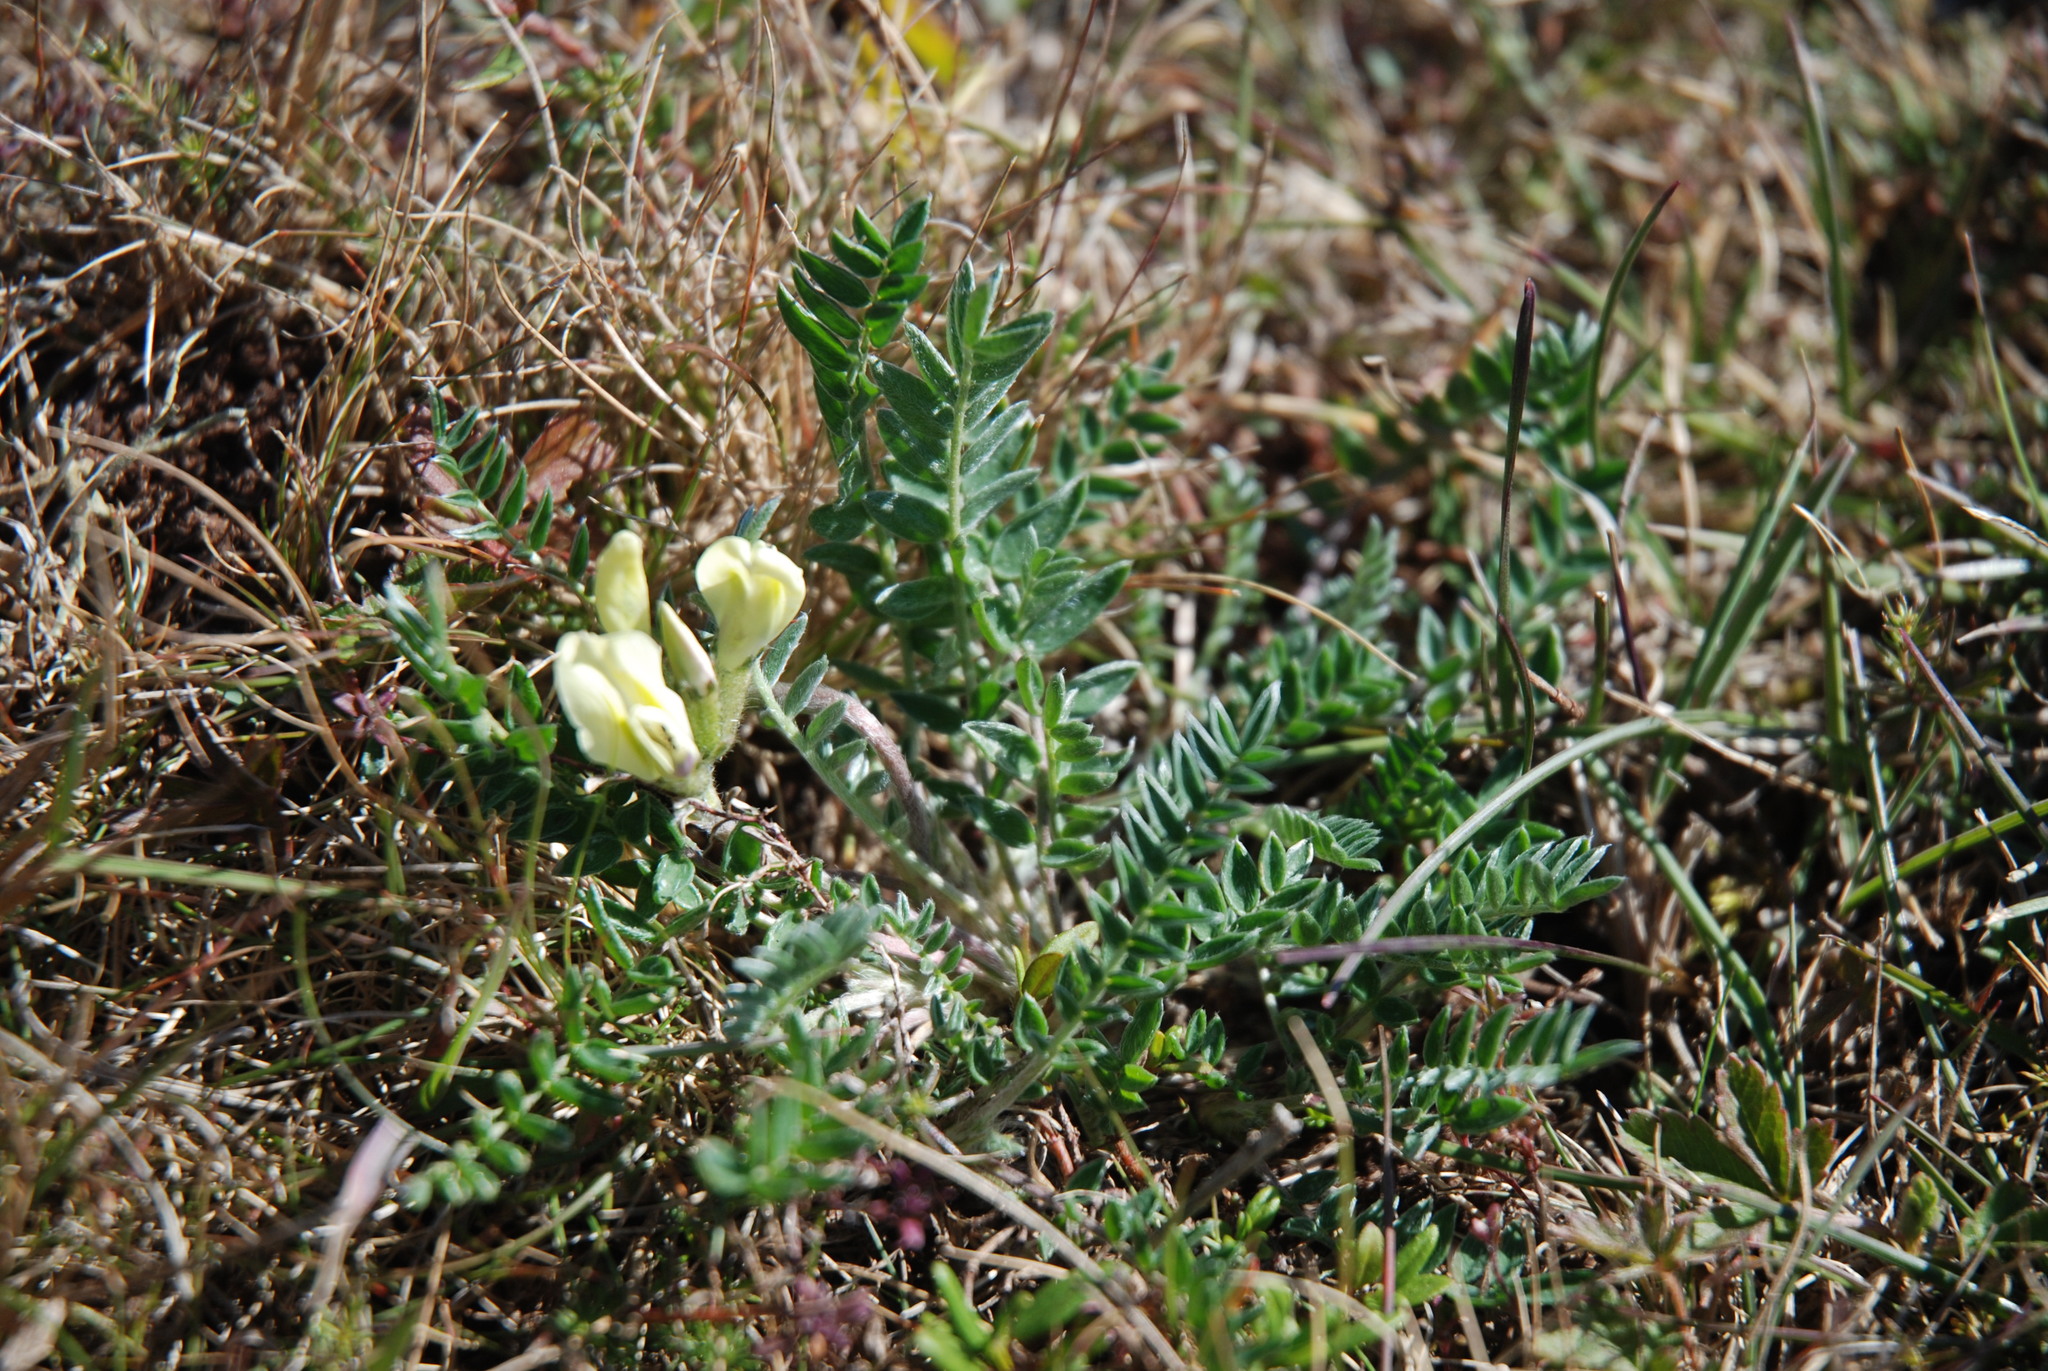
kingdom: Plantae
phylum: Tracheophyta
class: Magnoliopsida
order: Fabales
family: Fabaceae
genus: Oxytropis
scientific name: Oxytropis campestris
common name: Field locoweed
